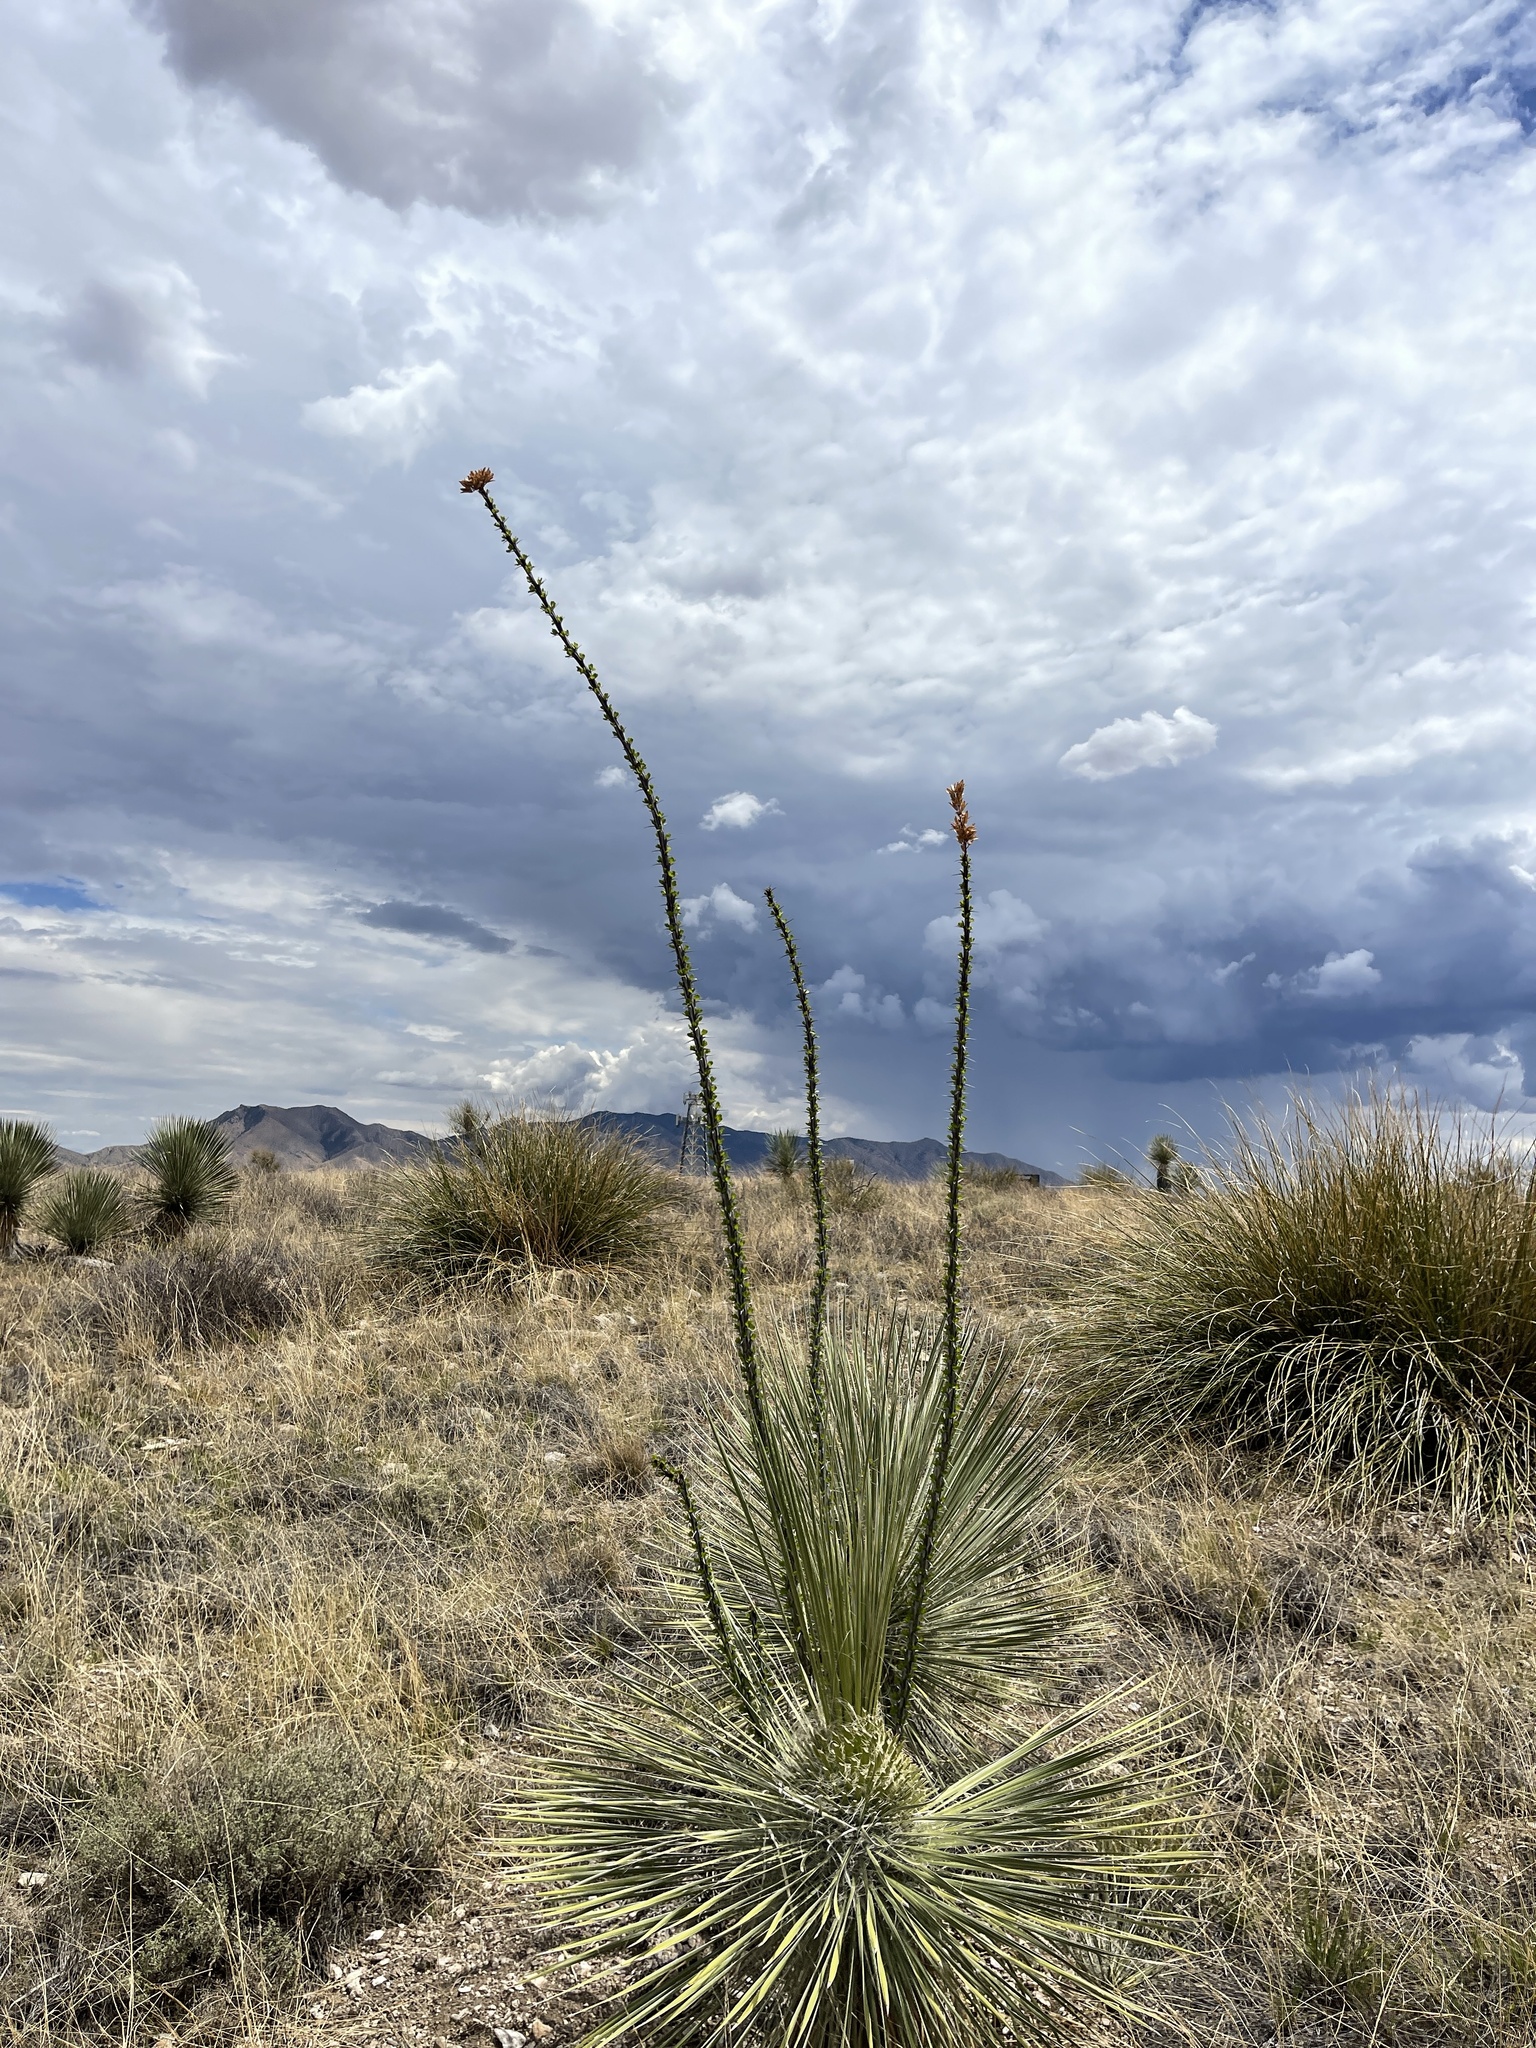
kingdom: Plantae
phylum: Tracheophyta
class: Magnoliopsida
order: Ericales
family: Fouquieriaceae
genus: Fouquieria
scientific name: Fouquieria splendens
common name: Vine-cactus
